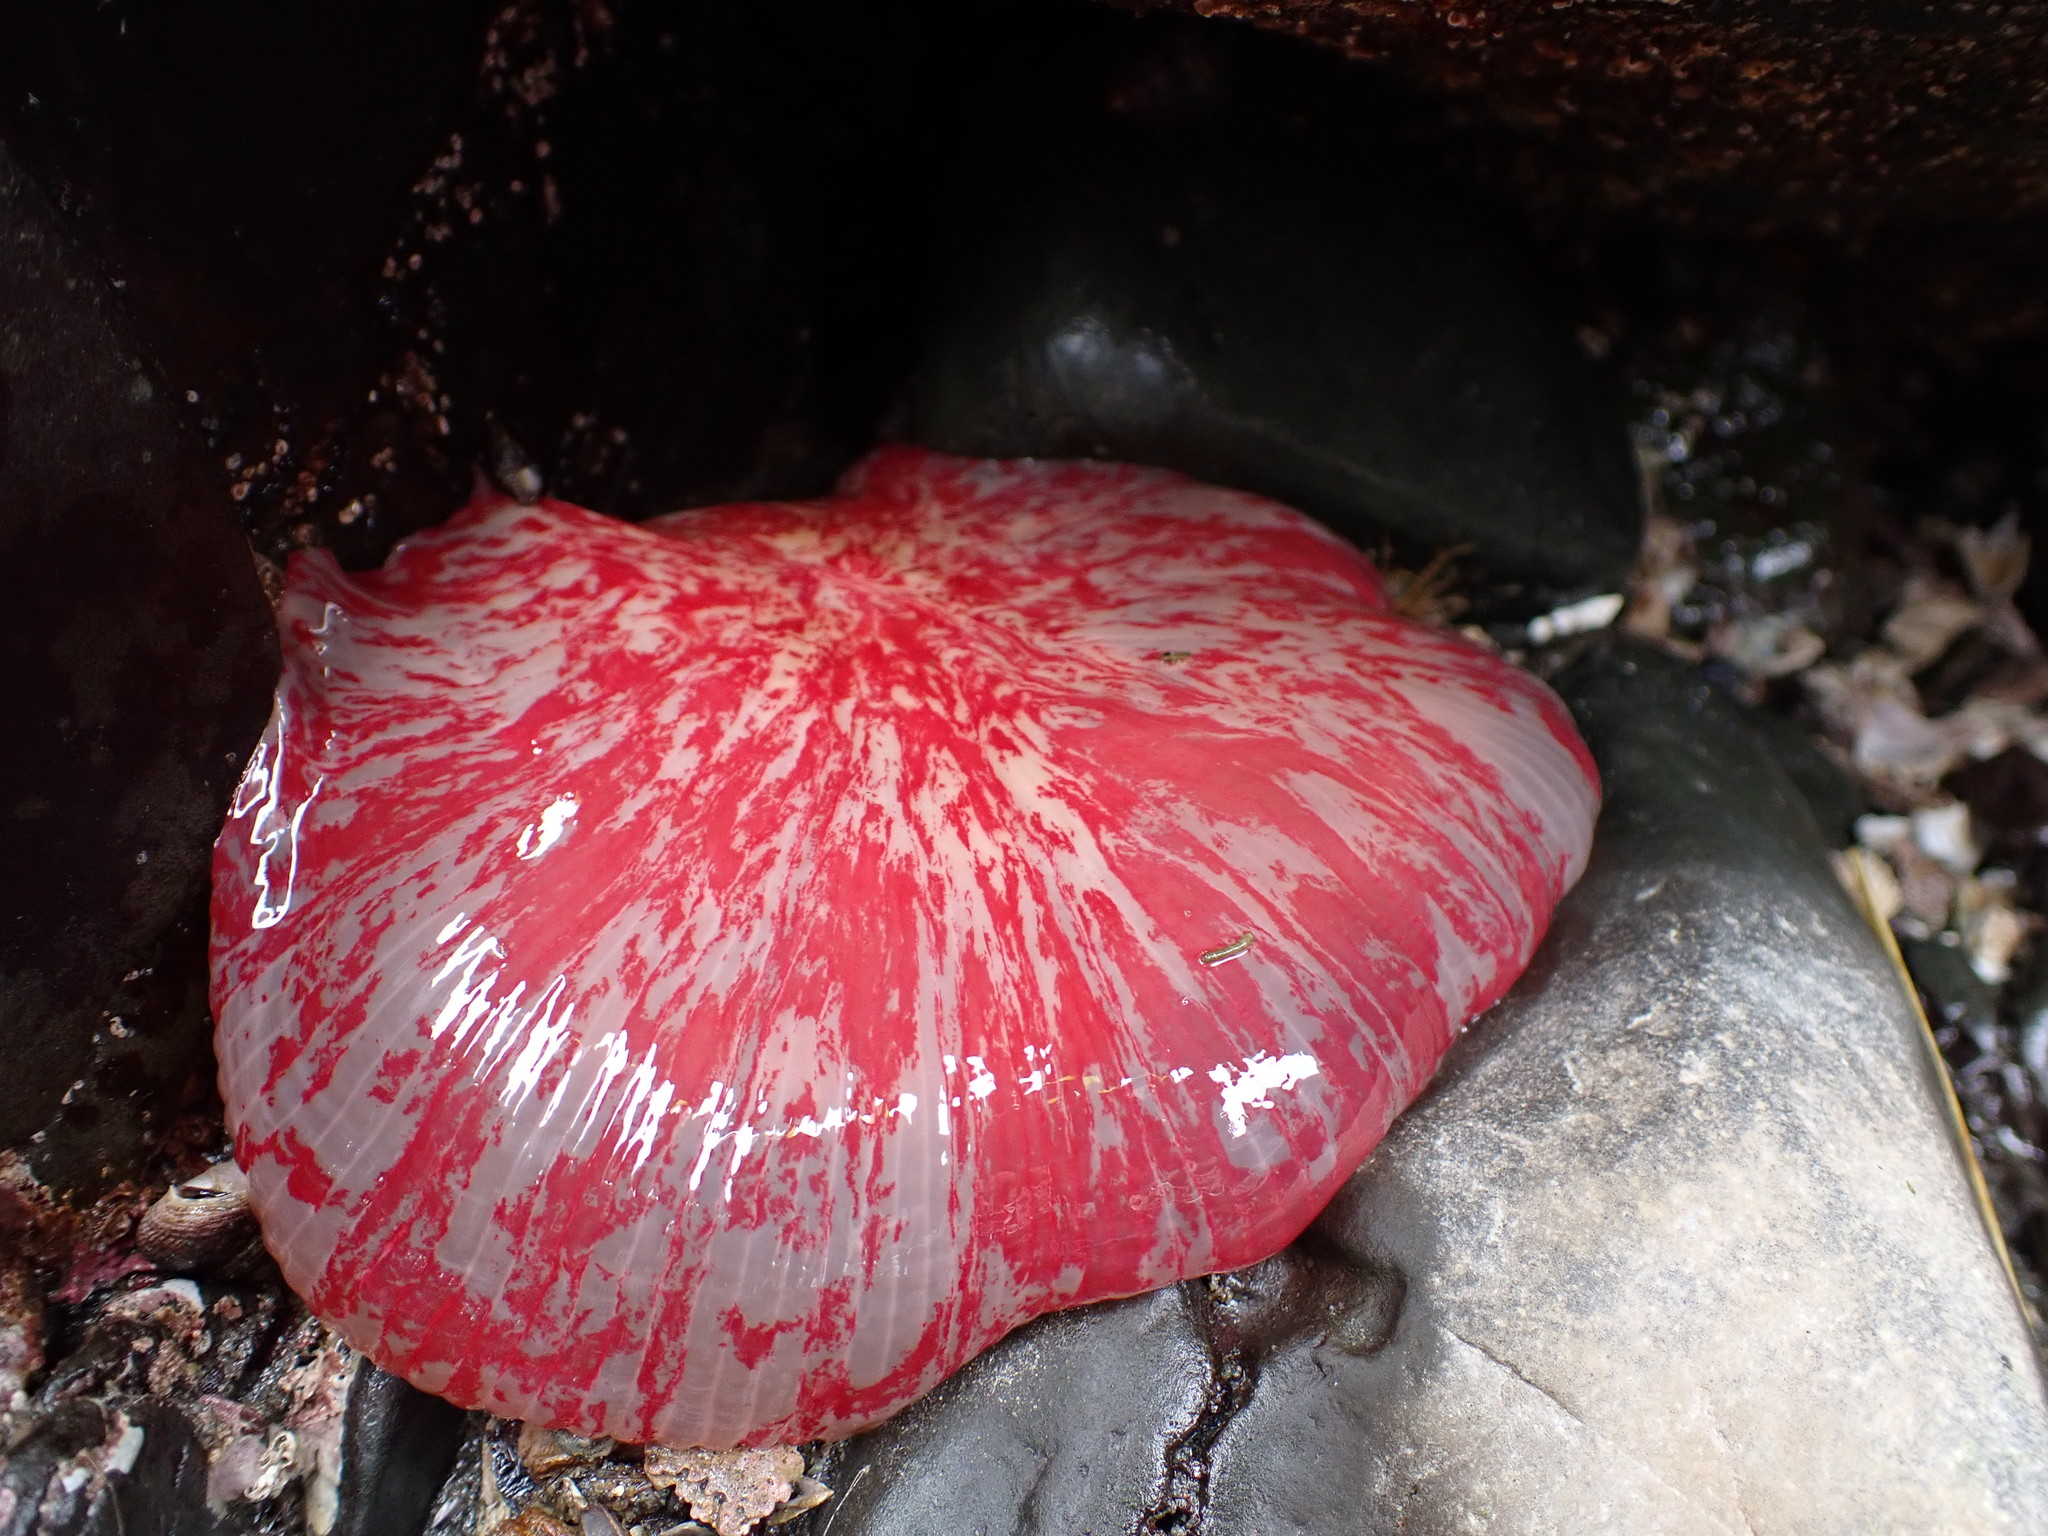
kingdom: Animalia
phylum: Cnidaria
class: Anthozoa
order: Actiniaria
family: Actiniidae
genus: Urticina
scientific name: Urticina grebelnyi
